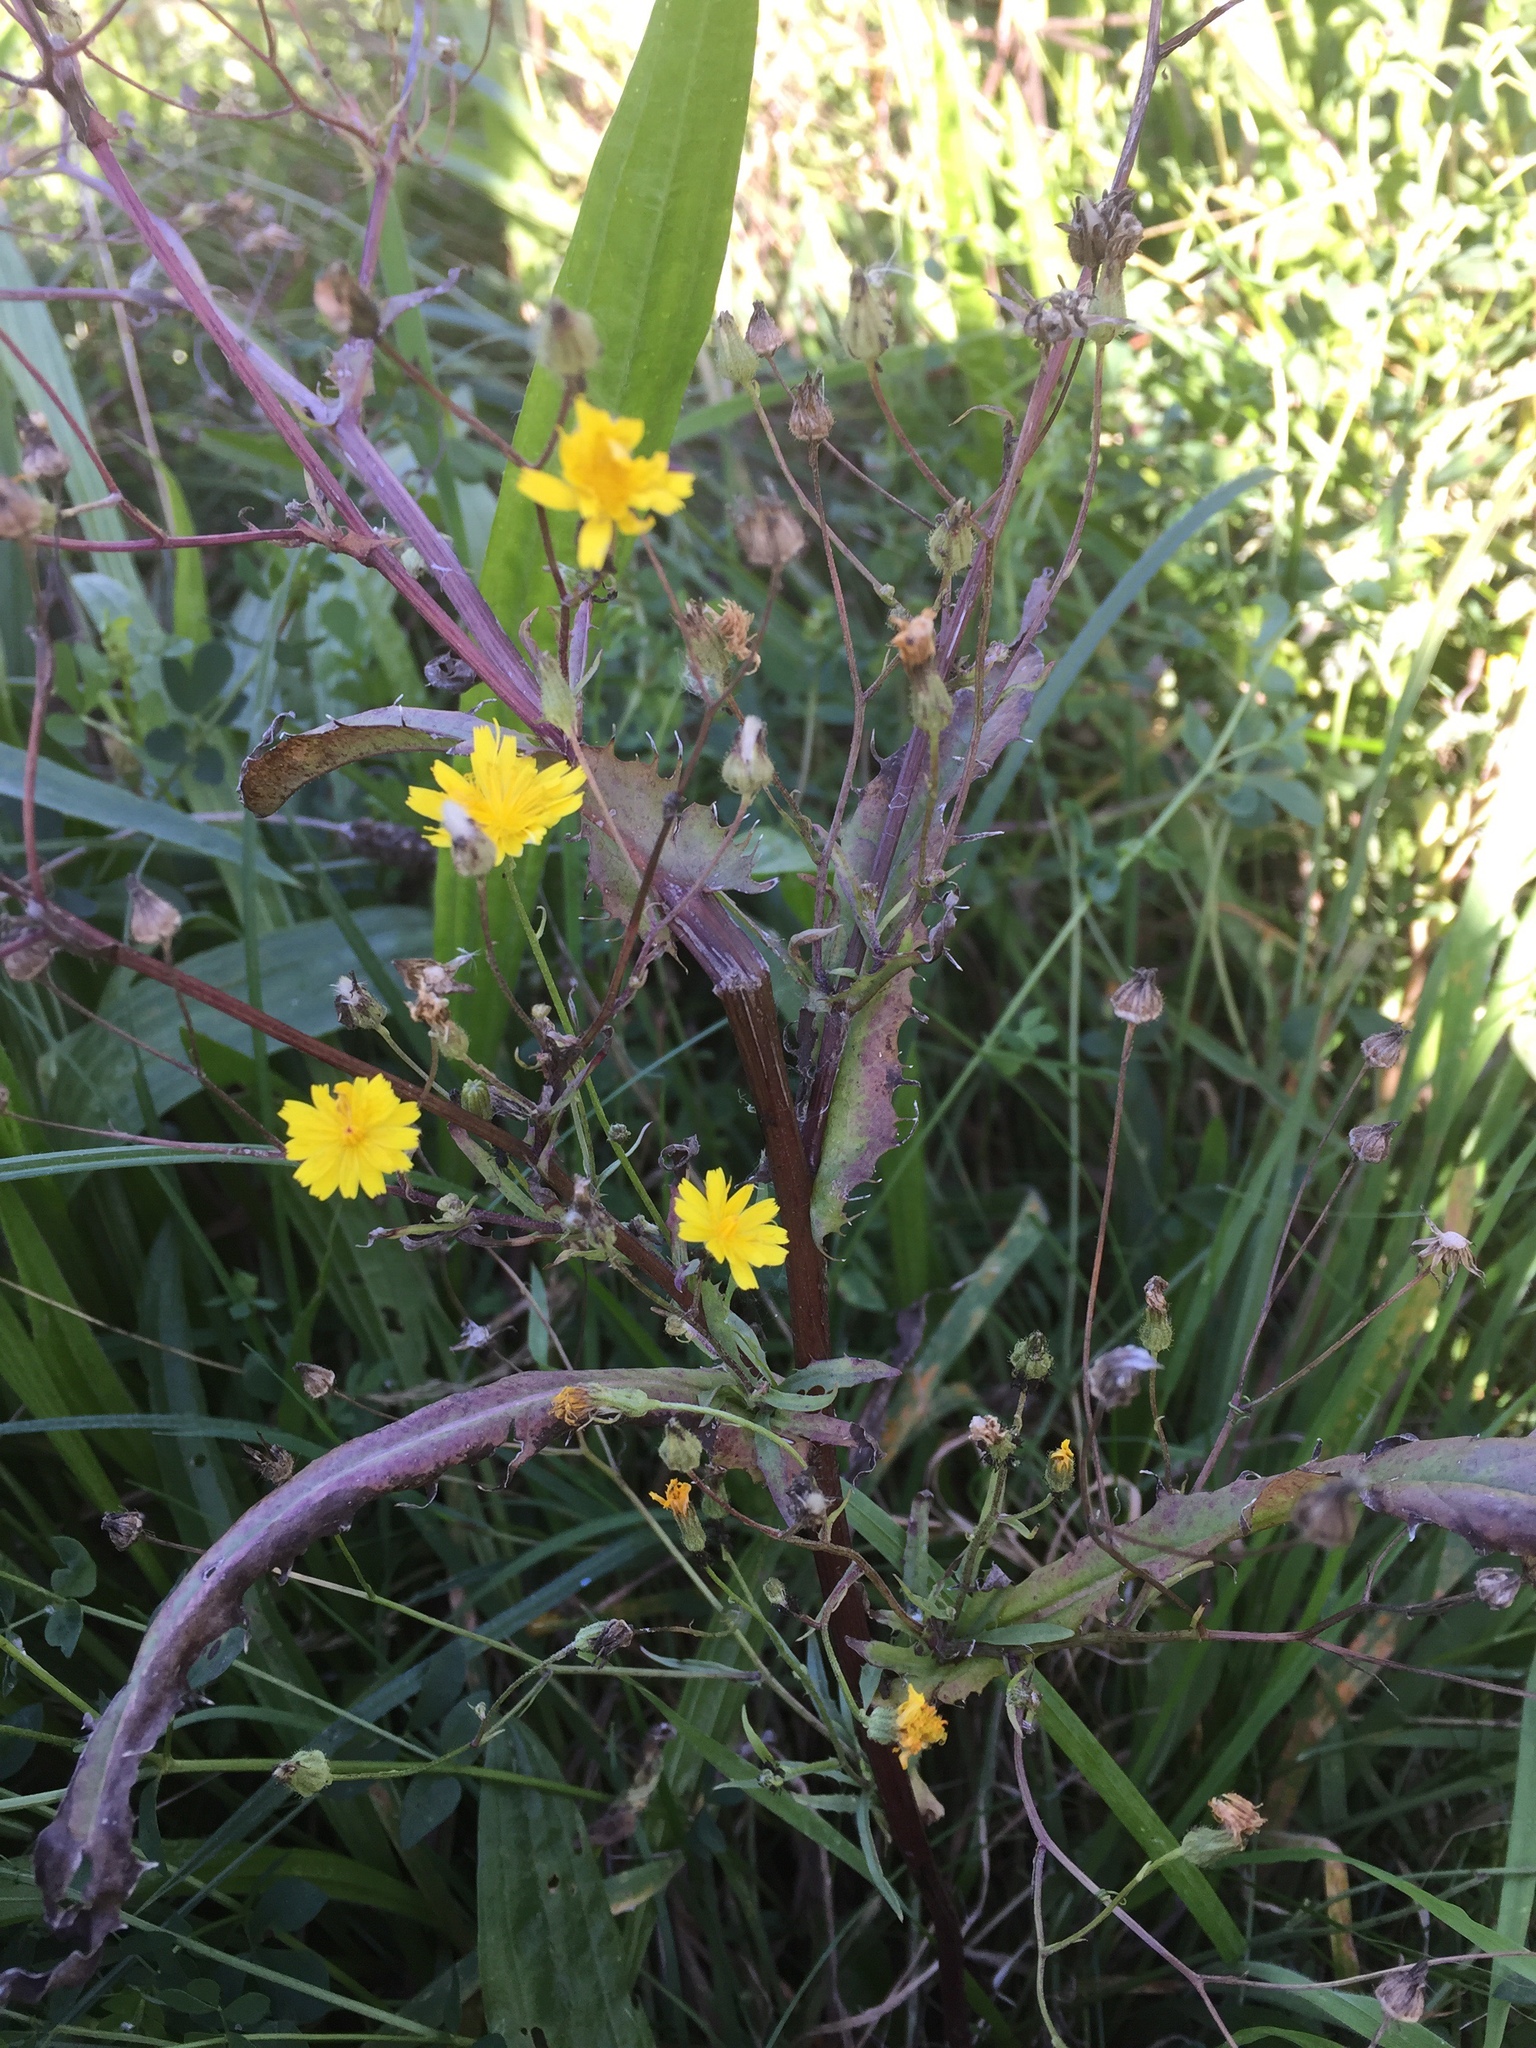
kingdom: Plantae
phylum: Tracheophyta
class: Magnoliopsida
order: Asterales
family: Asteraceae
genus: Crepis
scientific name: Crepis capillaris
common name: Smooth hawksbeard
